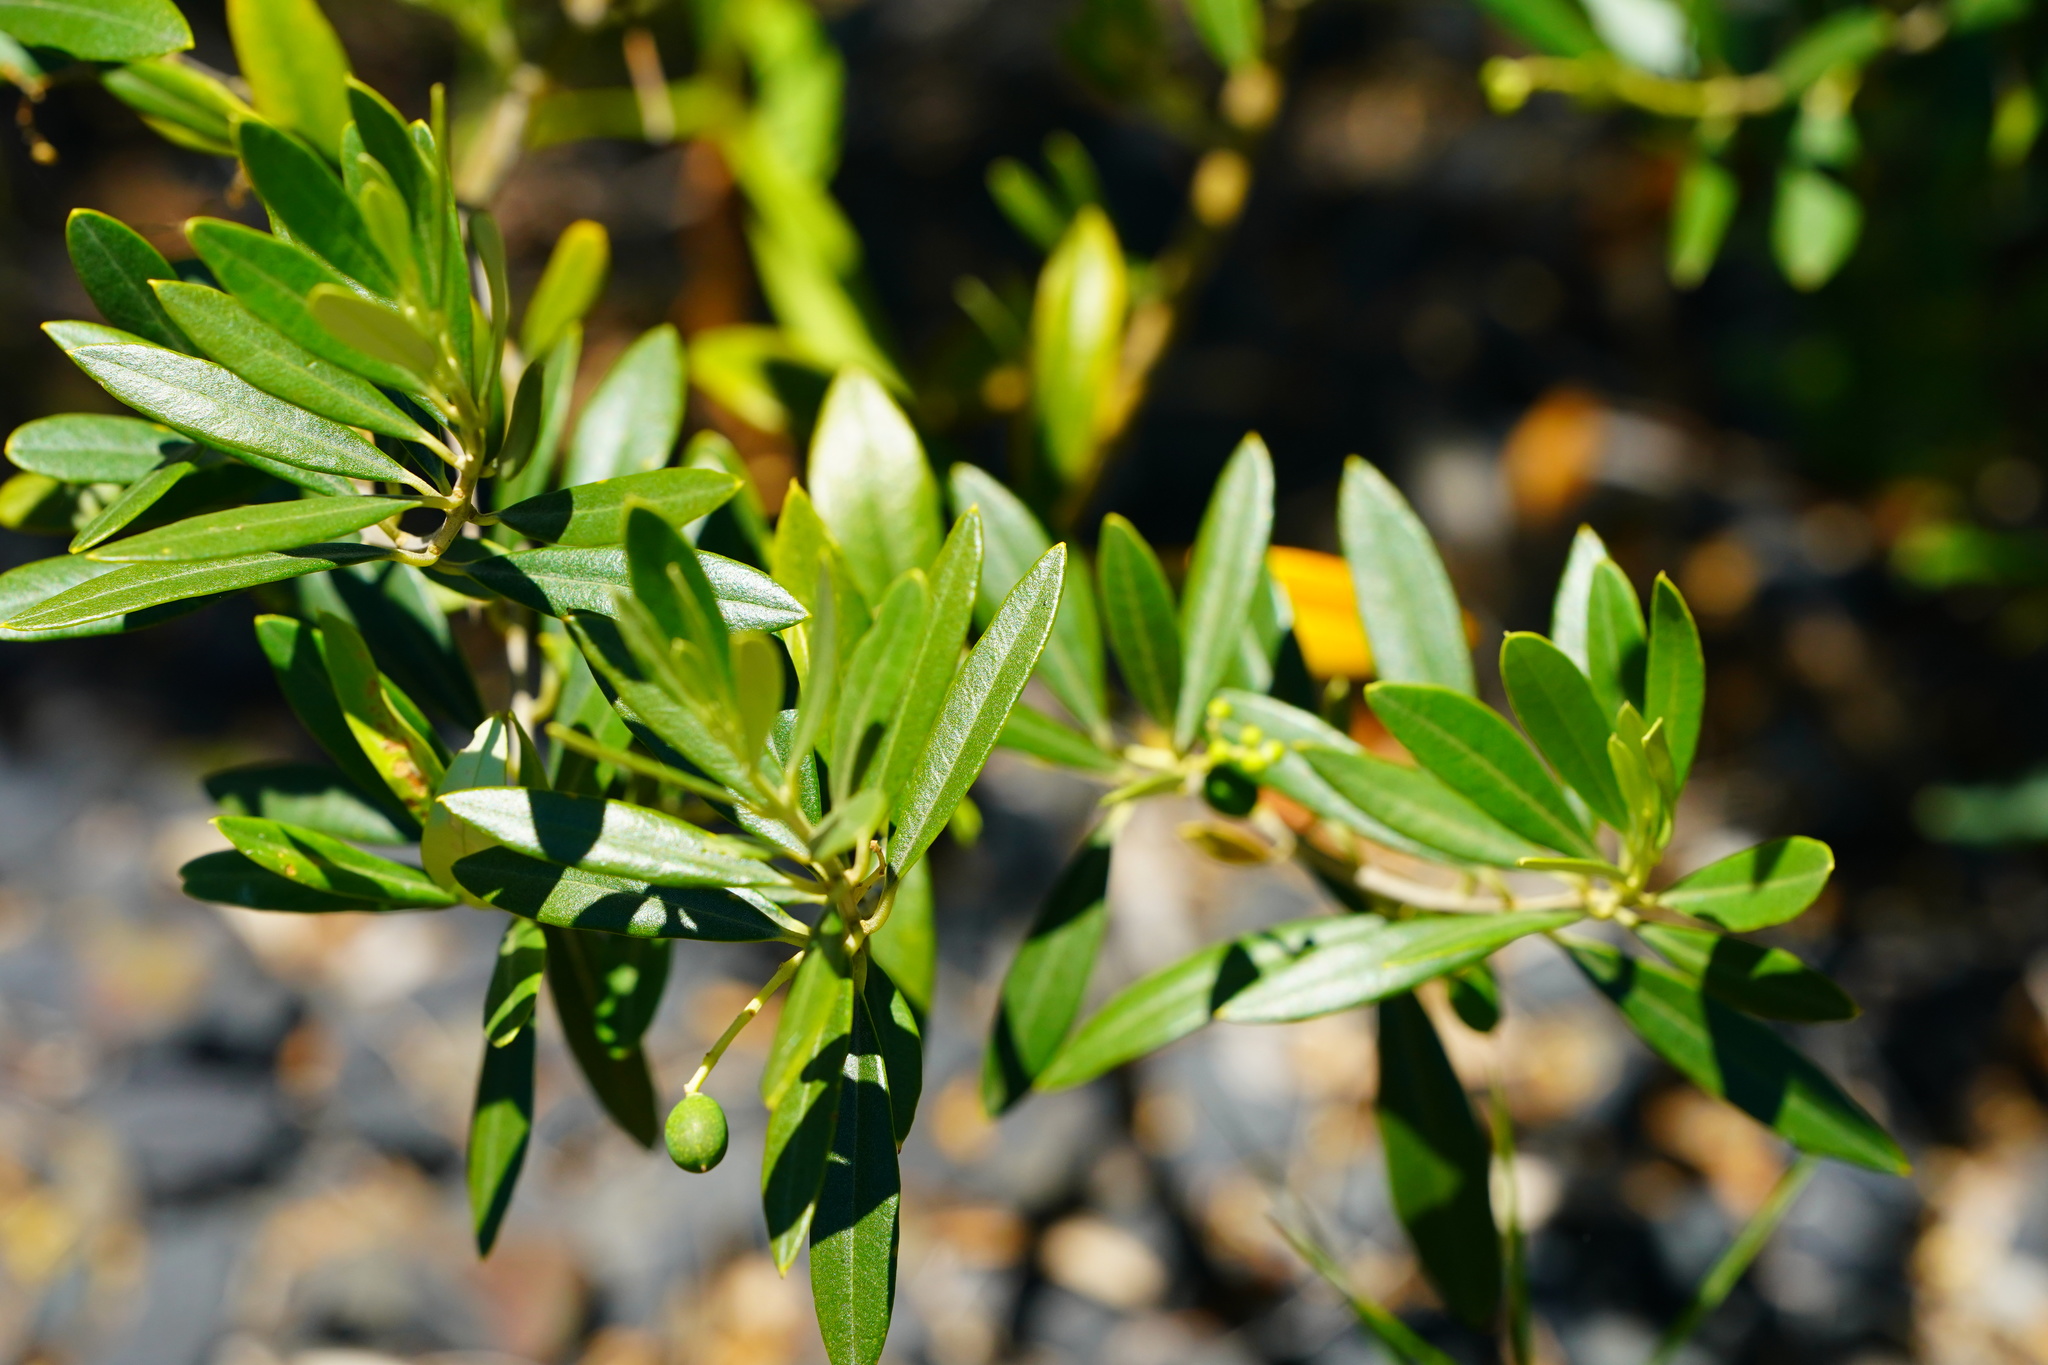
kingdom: Plantae
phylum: Tracheophyta
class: Magnoliopsida
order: Lamiales
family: Oleaceae
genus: Olea
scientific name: Olea europaea
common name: Olive
